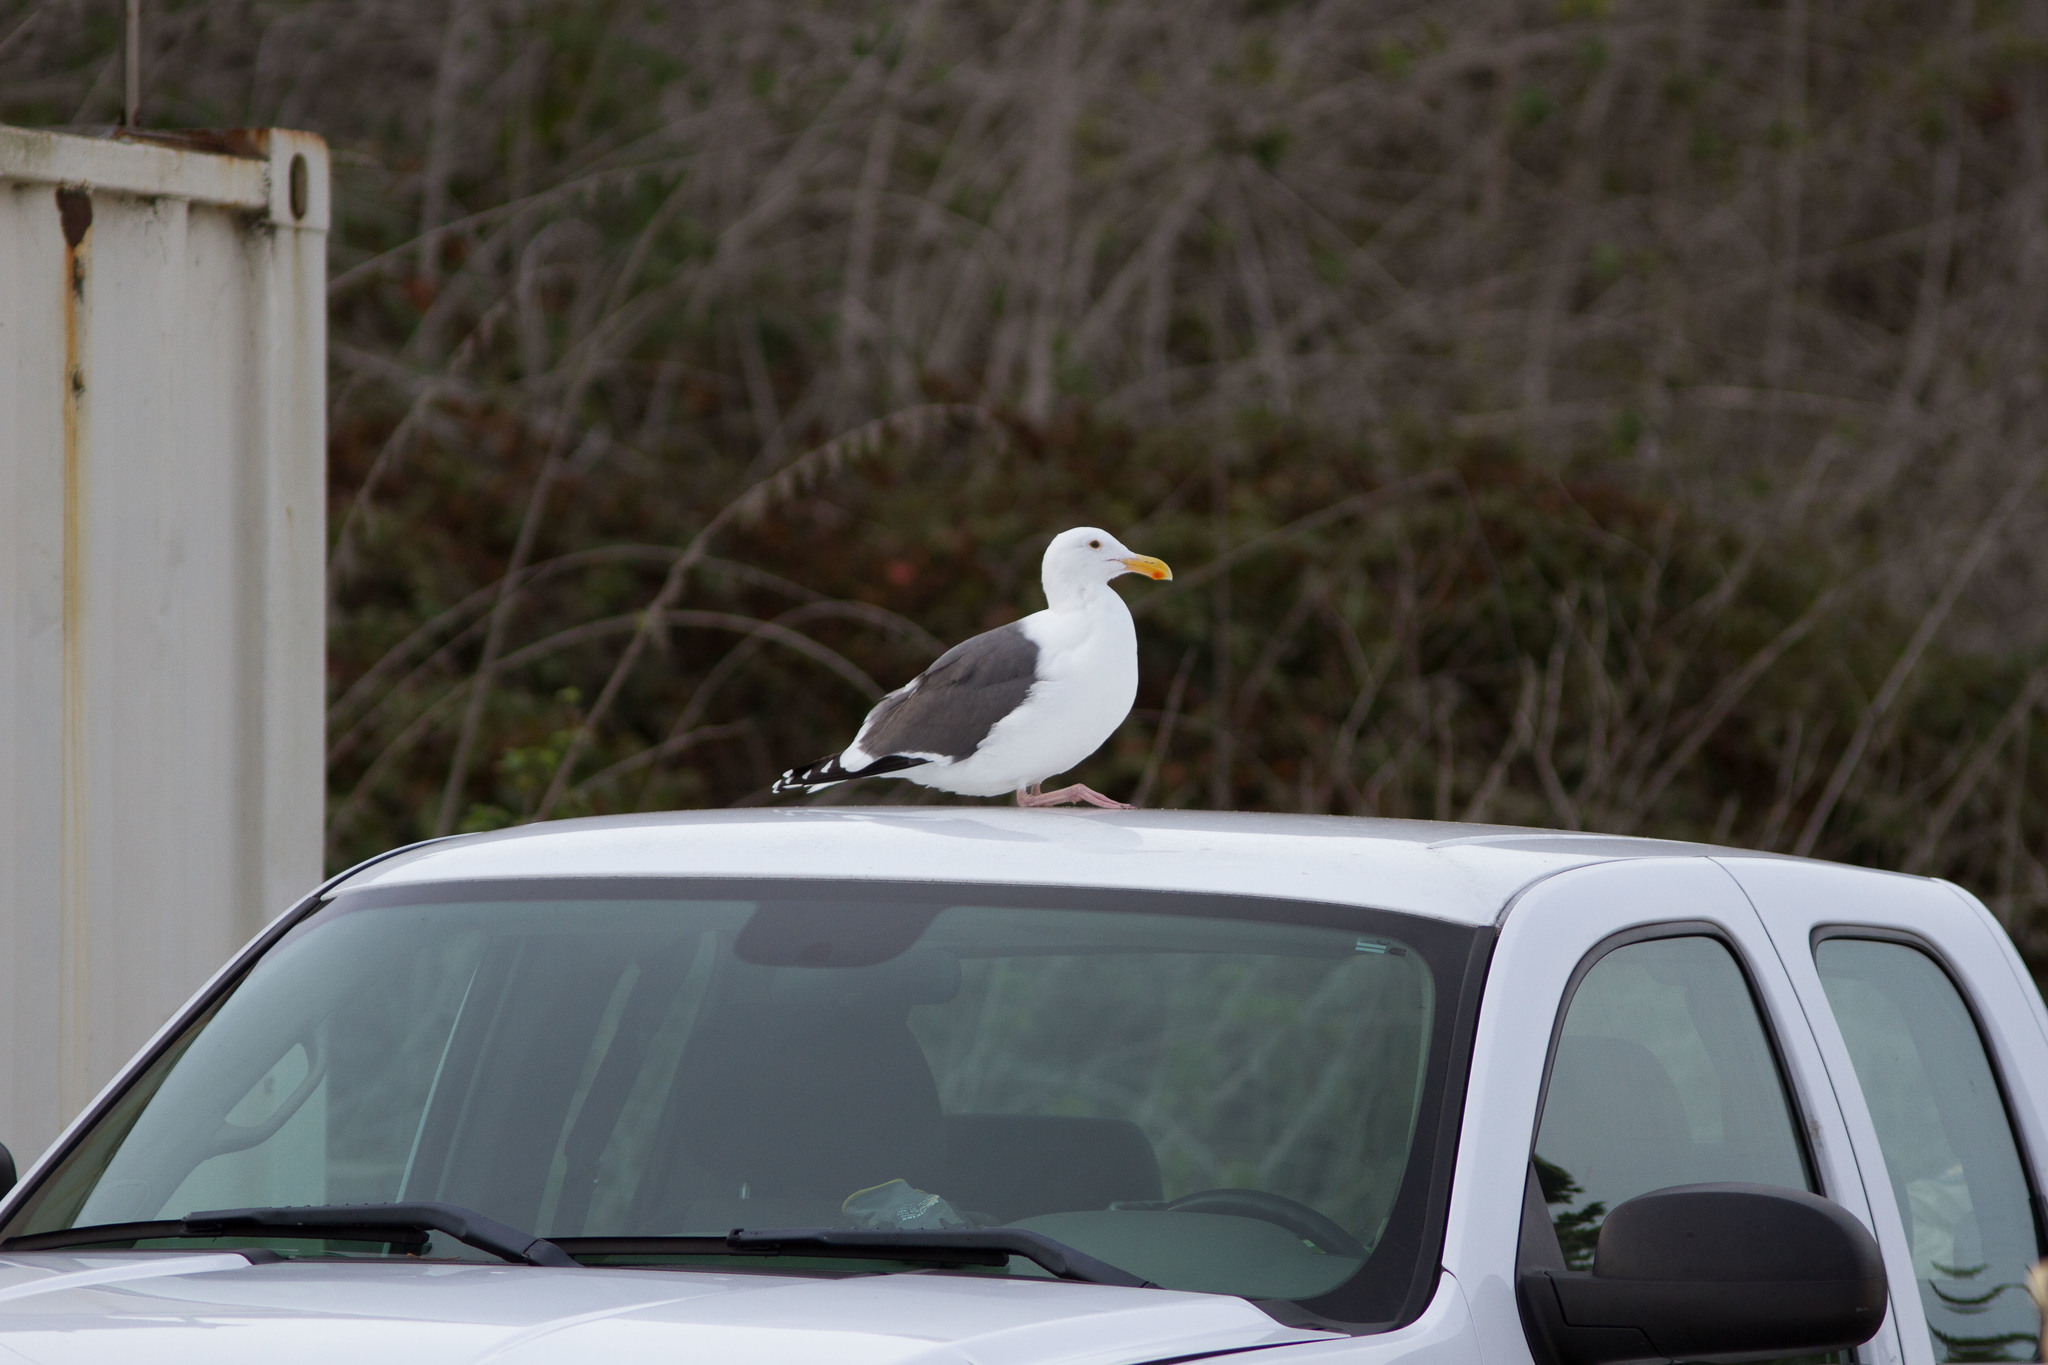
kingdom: Animalia
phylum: Chordata
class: Aves
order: Charadriiformes
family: Laridae
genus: Larus
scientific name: Larus occidentalis
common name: Western gull
